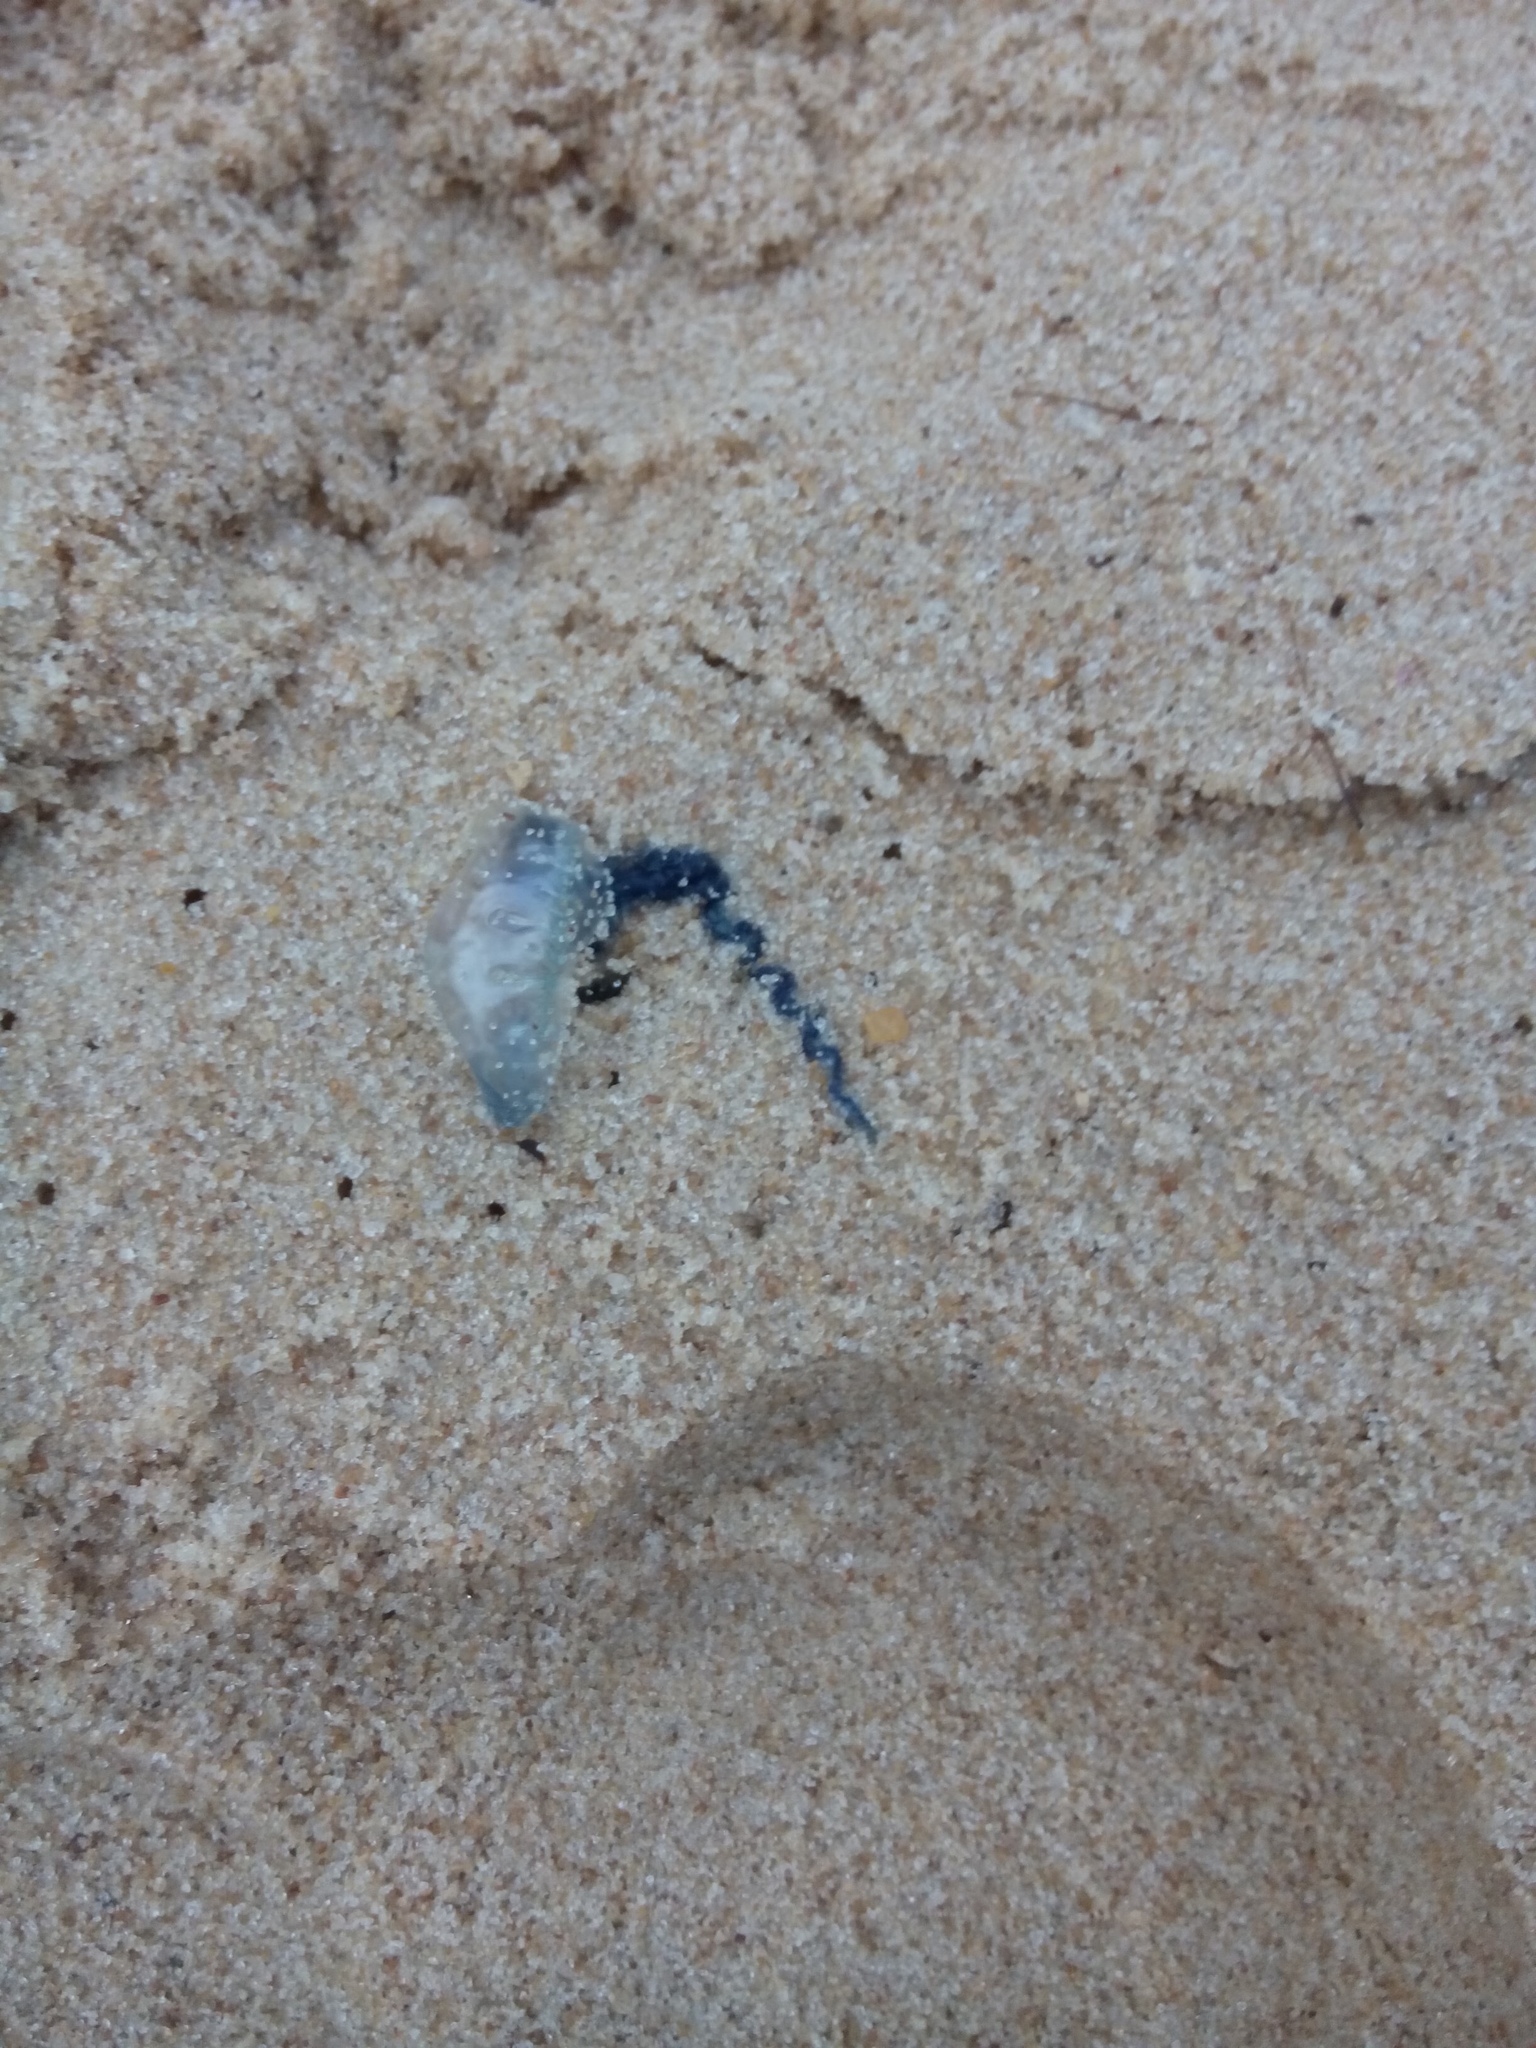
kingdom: Animalia
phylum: Cnidaria
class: Hydrozoa
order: Siphonophorae
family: Physaliidae
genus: Physalia
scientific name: Physalia physalis
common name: Portuguese man-of-war
